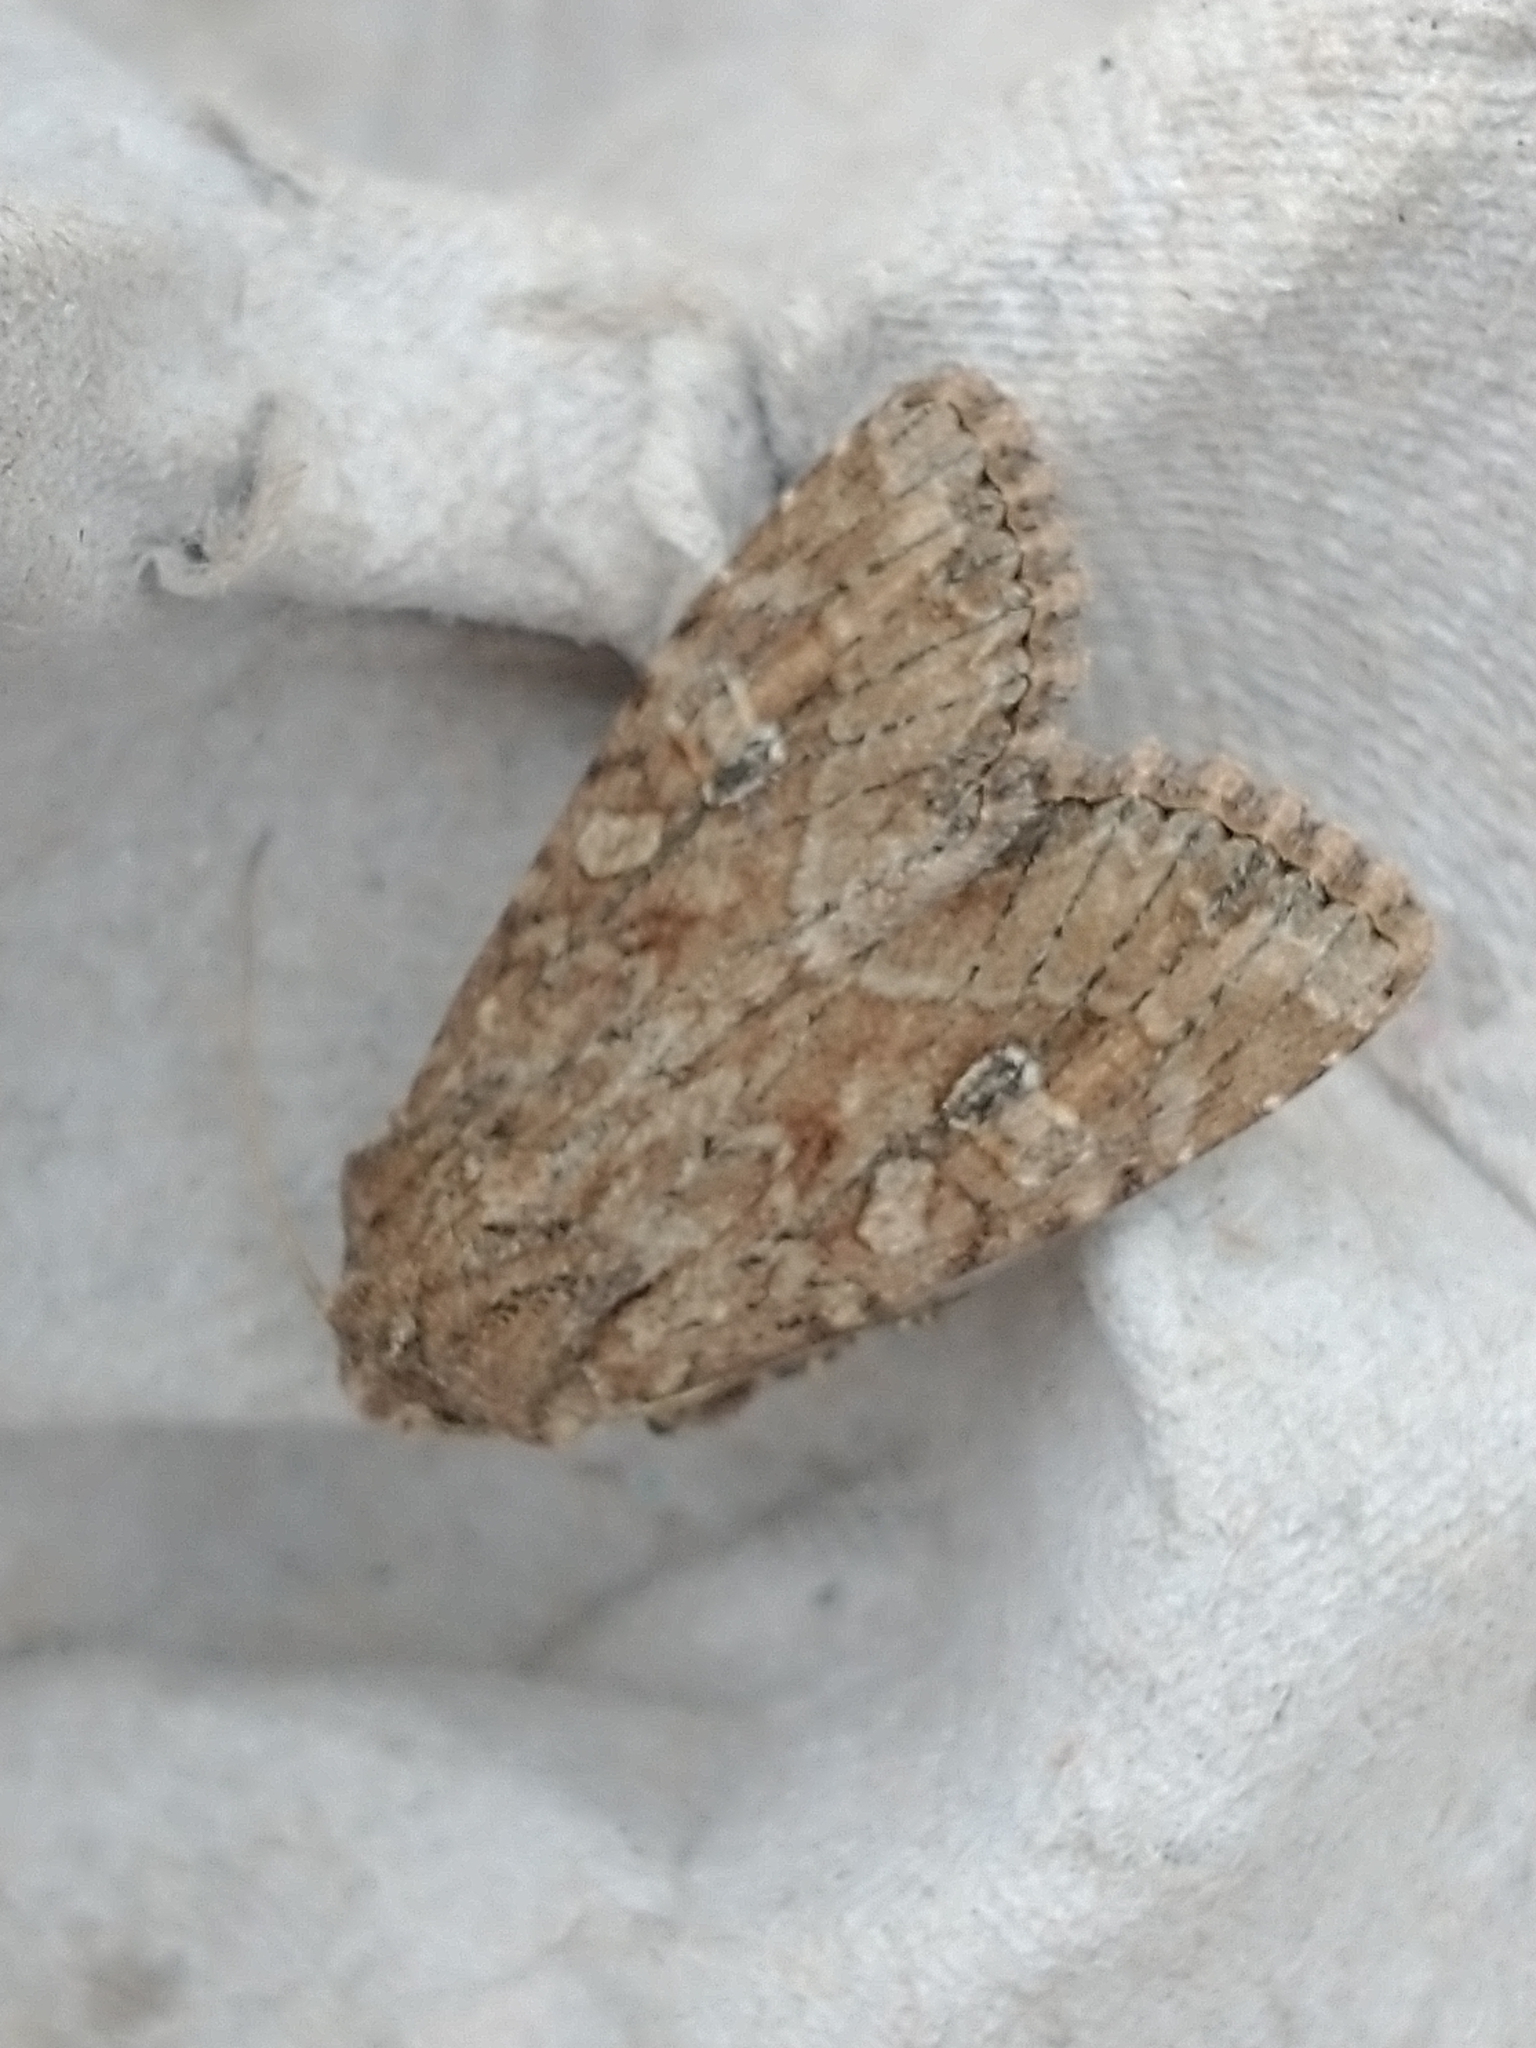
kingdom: Animalia
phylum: Arthropoda
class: Insecta
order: Lepidoptera
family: Noctuidae
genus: Apamea
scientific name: Apamea anceps
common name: Large nutmeg
